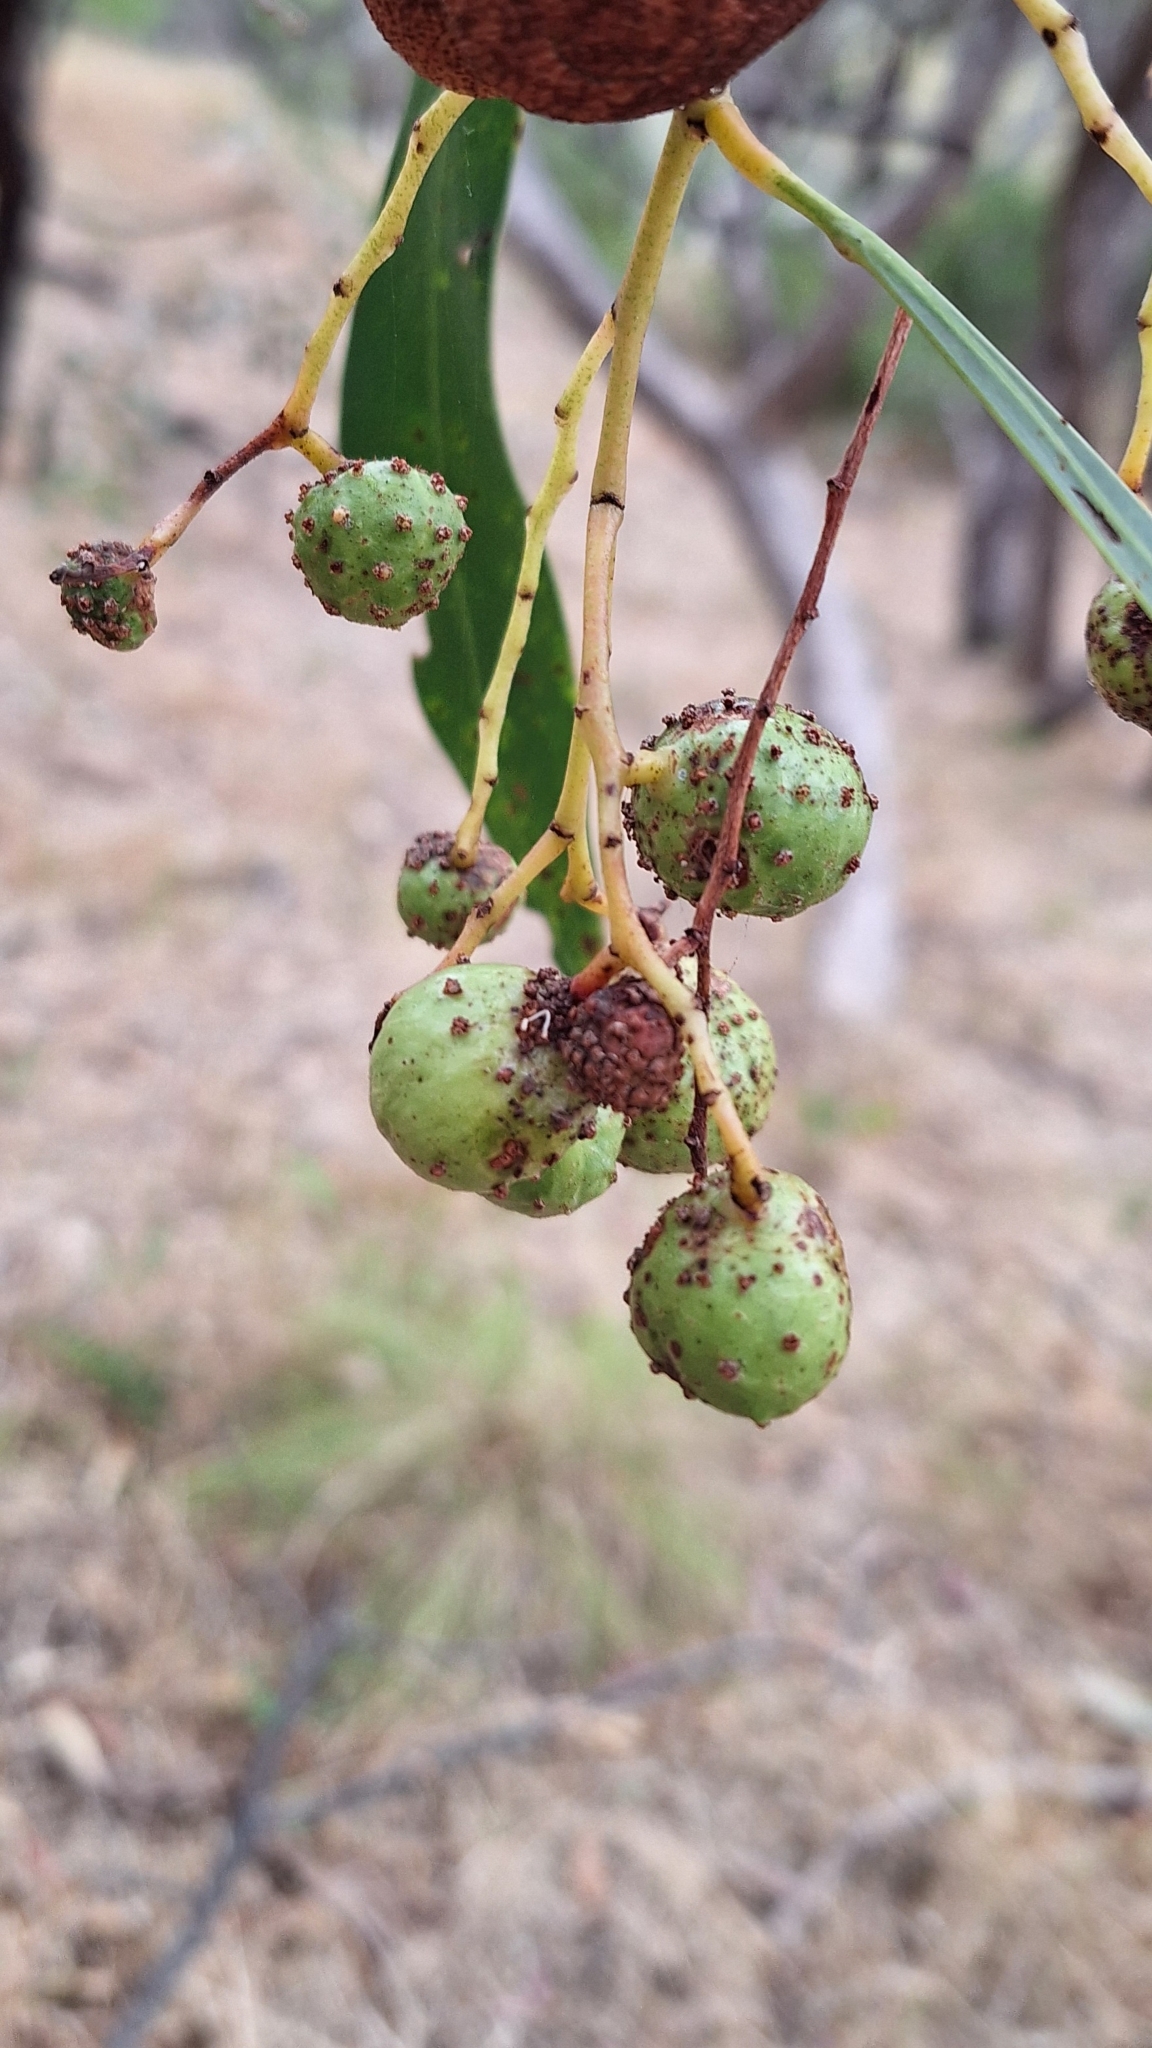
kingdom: Animalia
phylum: Arthropoda
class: Insecta
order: Hymenoptera
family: Pteromalidae
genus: Trichilogaster
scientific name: Trichilogaster signiventris
